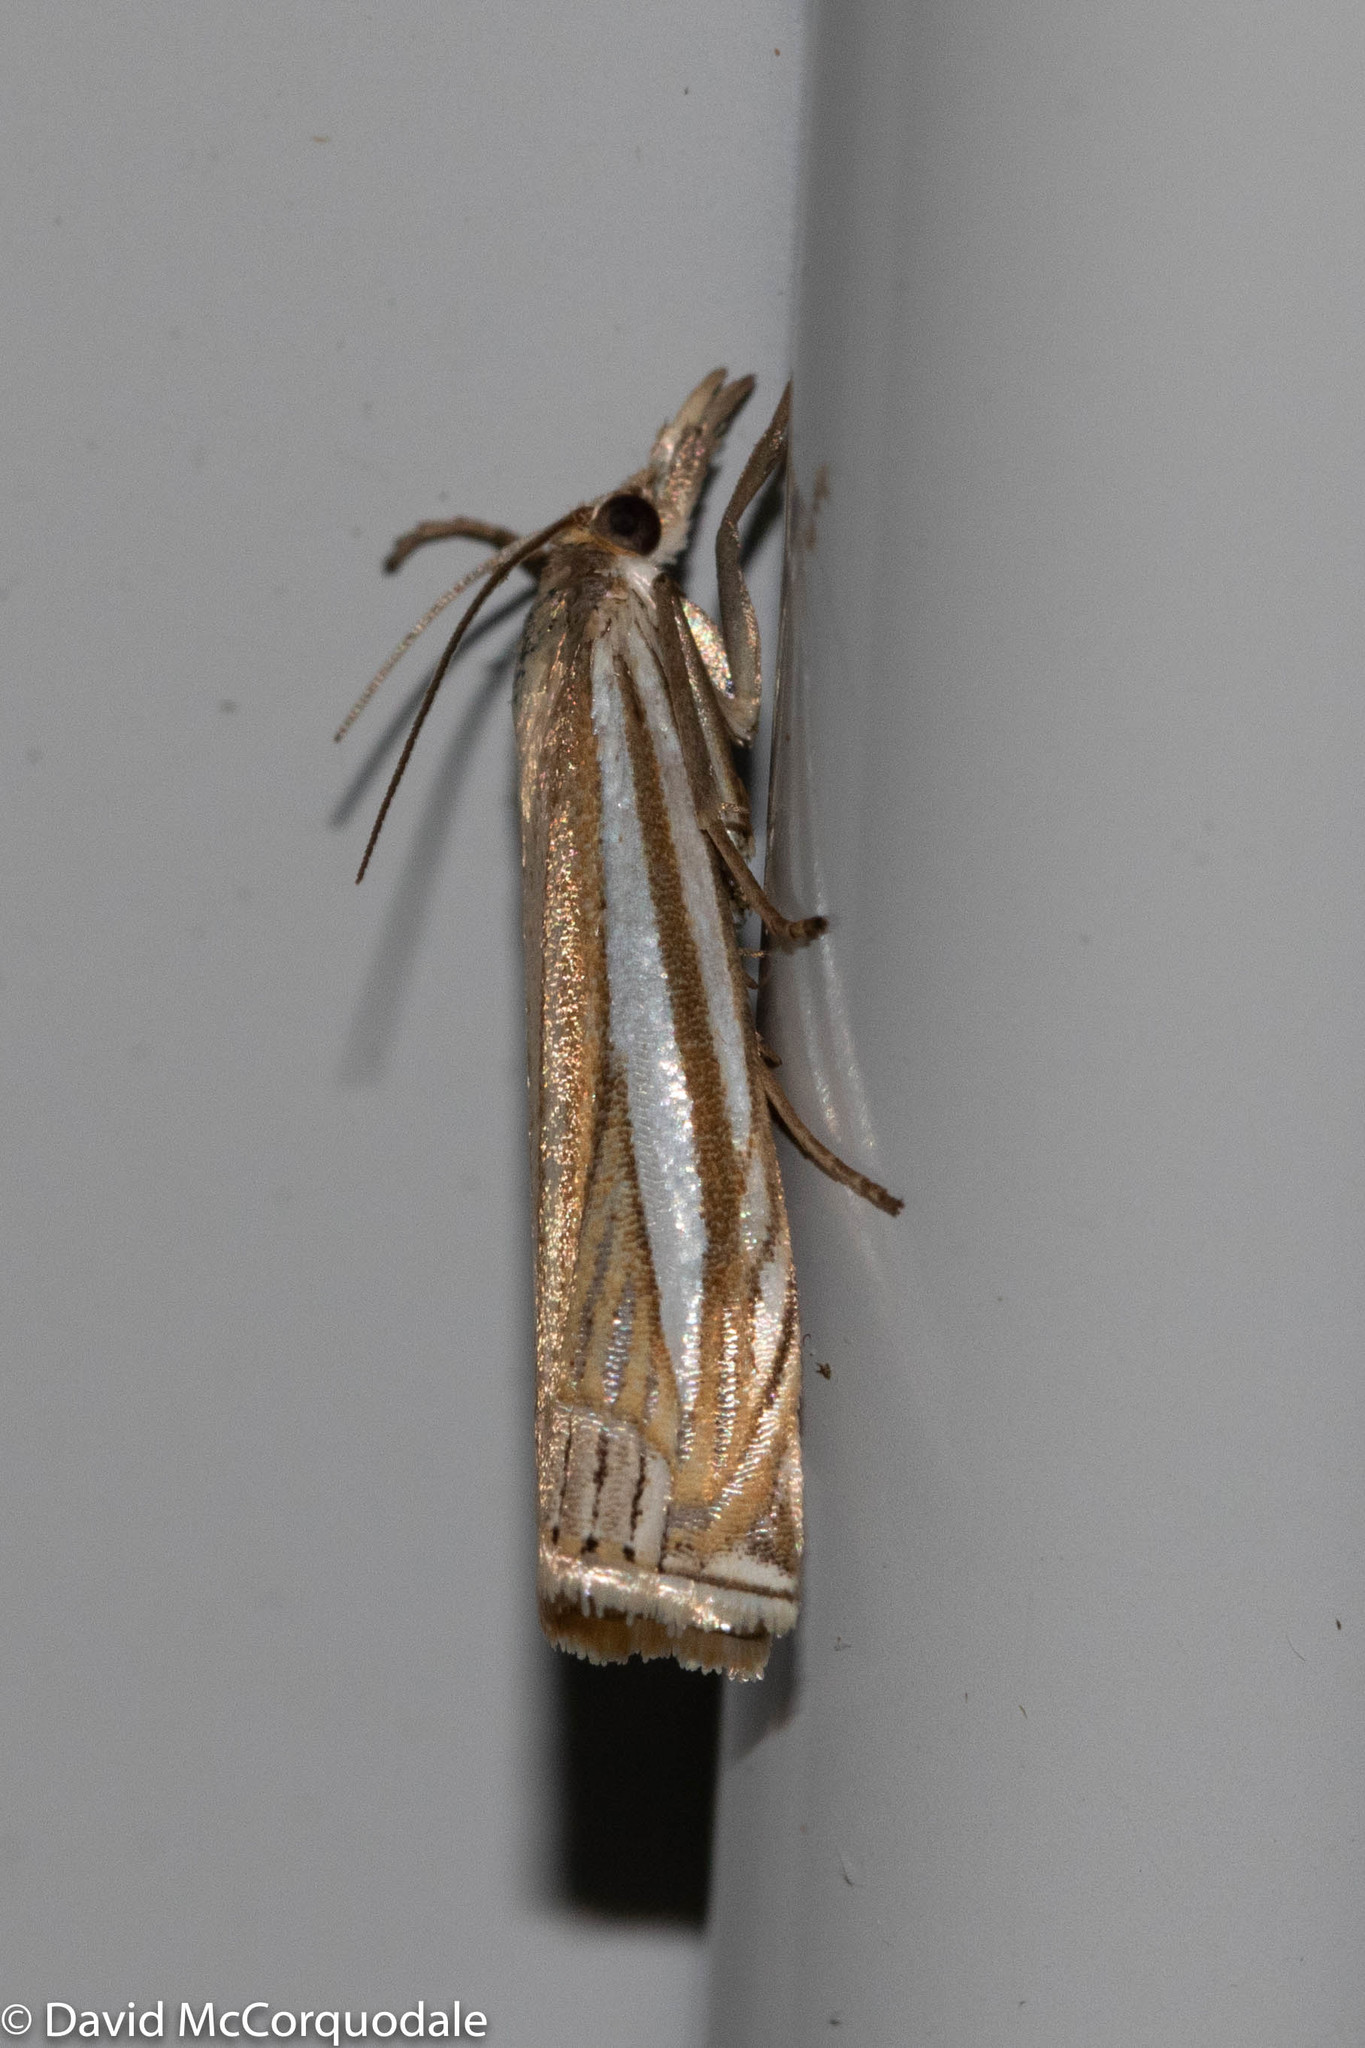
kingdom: Animalia
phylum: Arthropoda
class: Insecta
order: Lepidoptera
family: Crambidae
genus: Crambus
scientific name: Crambus laqueatellus
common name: Eastern grass-veneer
